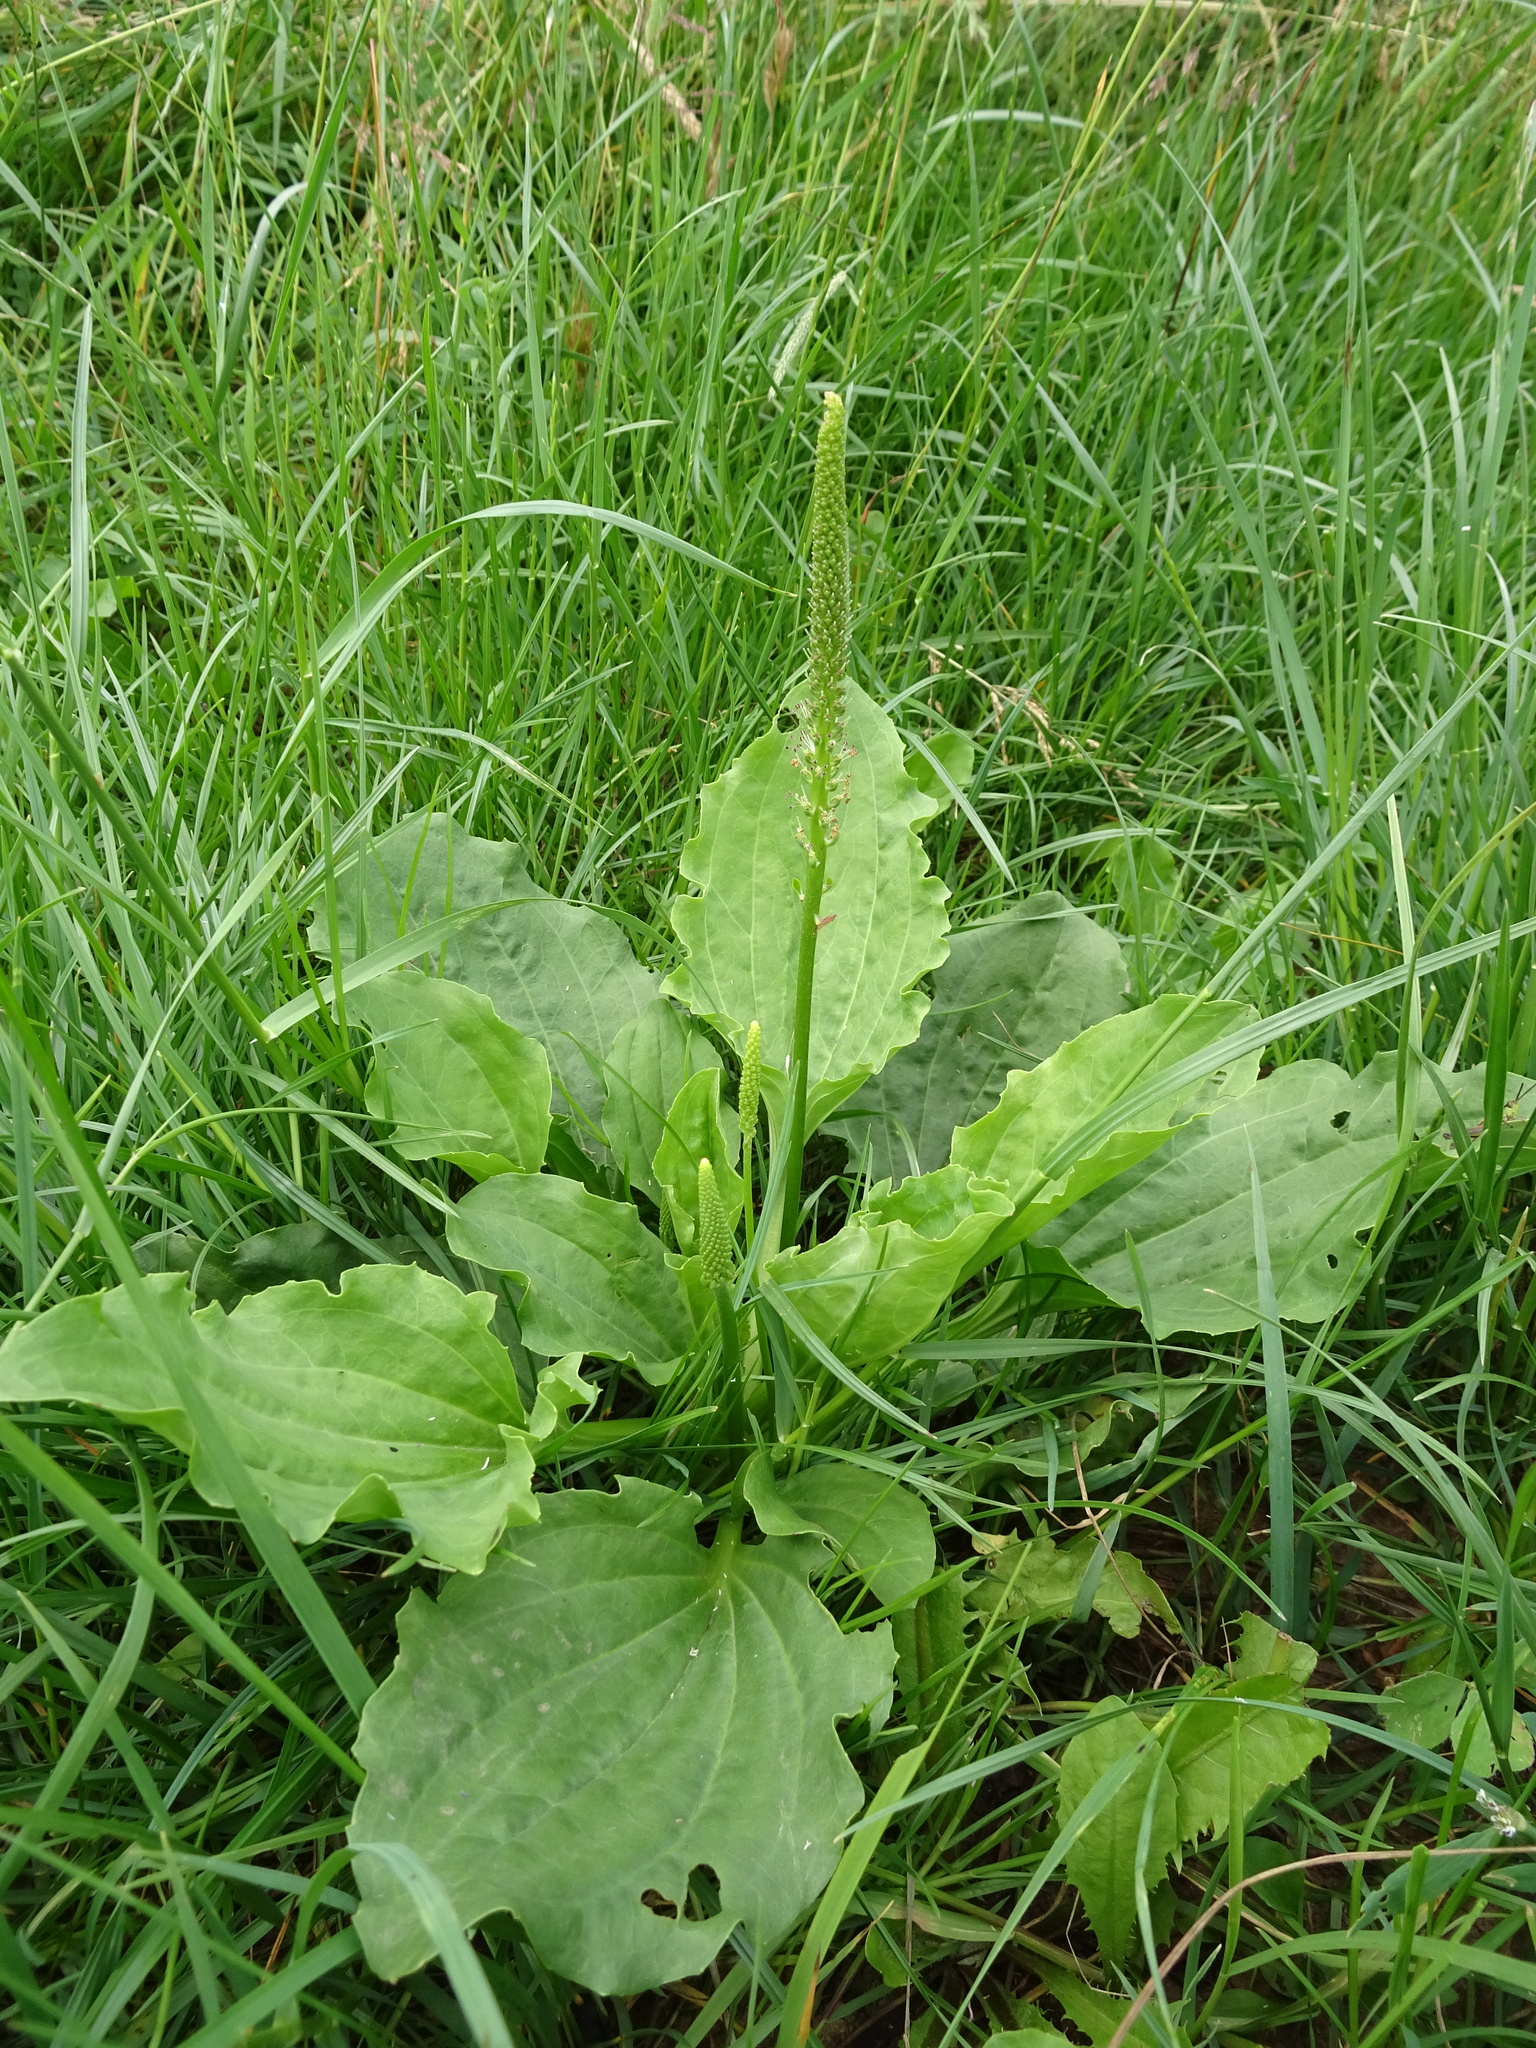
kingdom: Plantae
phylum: Tracheophyta
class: Magnoliopsida
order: Lamiales
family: Plantaginaceae
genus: Plantago
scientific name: Plantago major
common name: Common plantain
